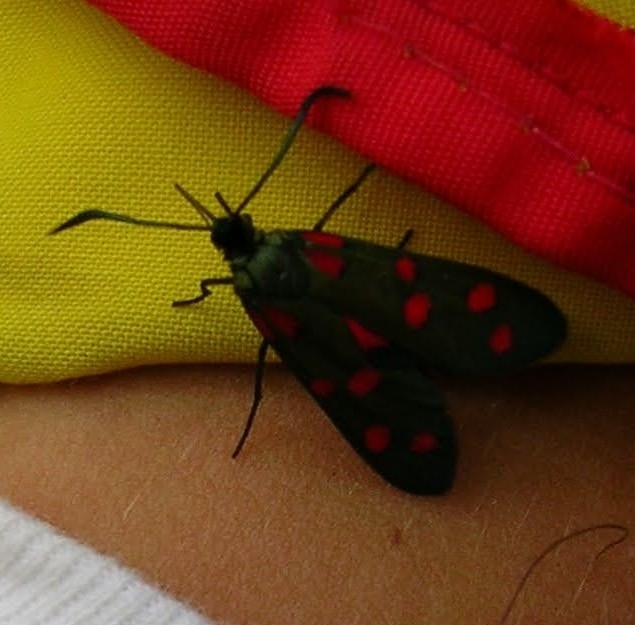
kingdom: Animalia
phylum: Arthropoda
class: Insecta
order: Lepidoptera
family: Zygaenidae
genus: Zygaena
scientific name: Zygaena transalpina
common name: Southern six spot burnet
